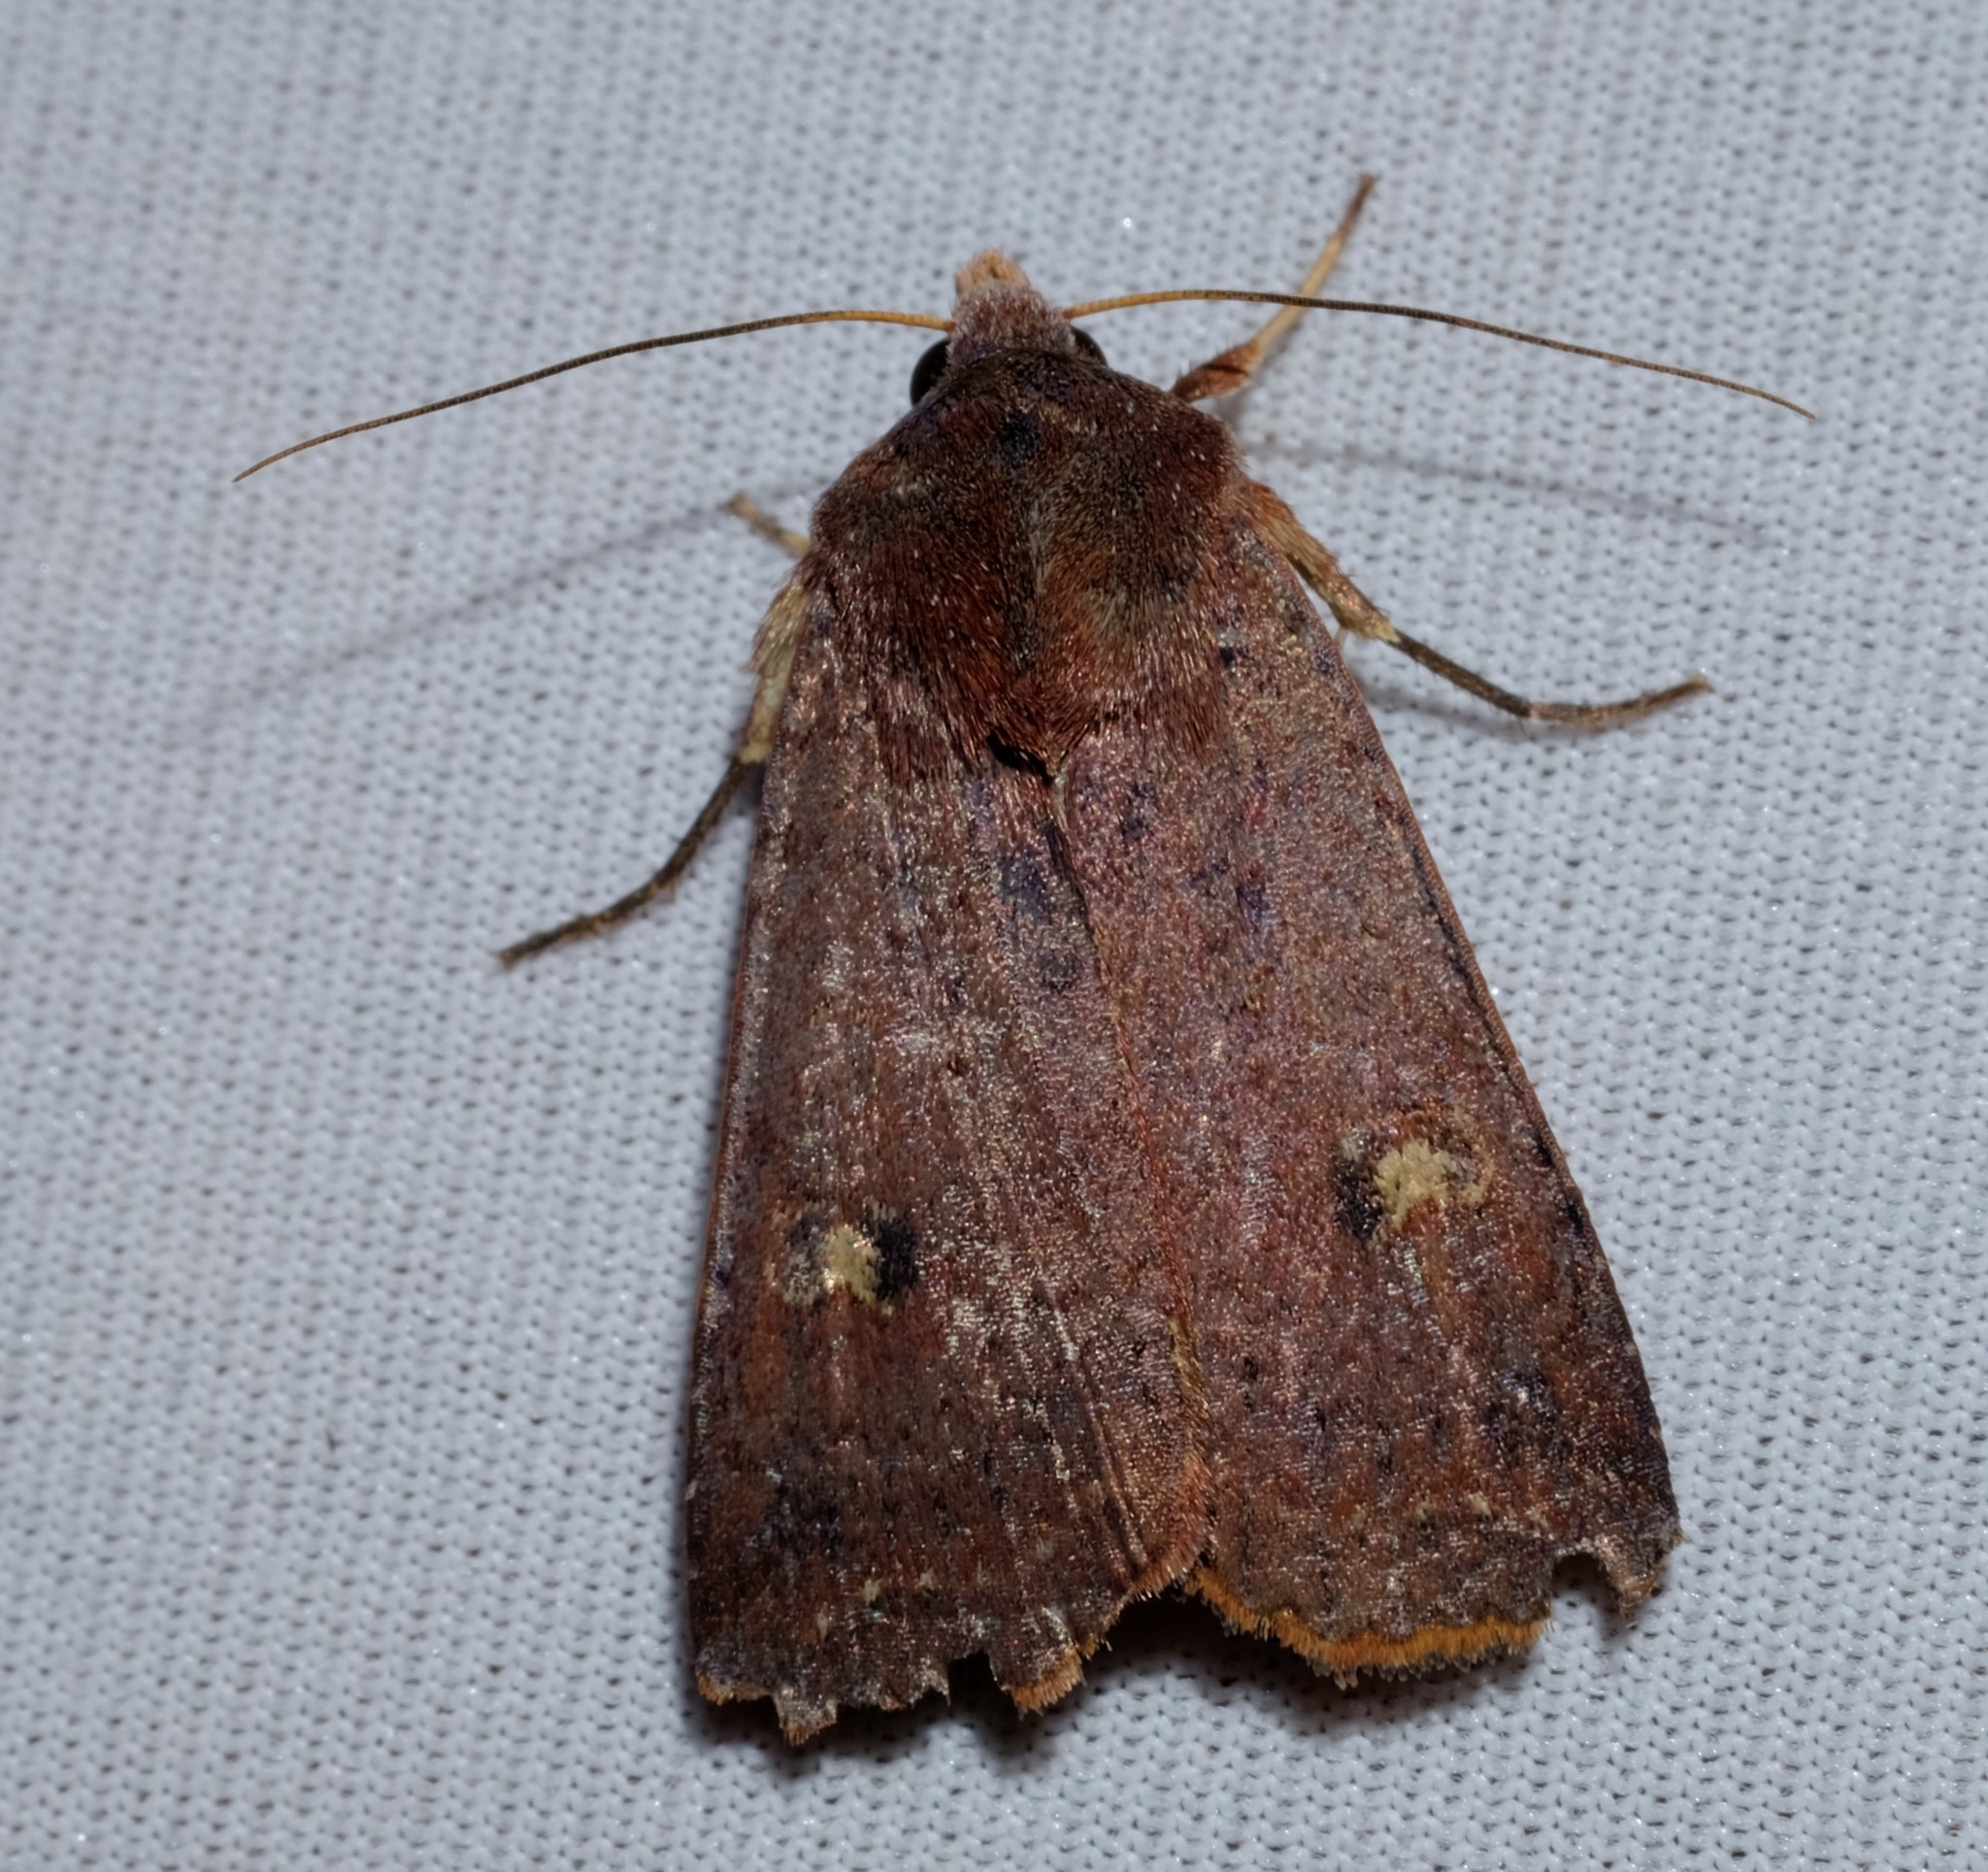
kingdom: Animalia
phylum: Arthropoda
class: Insecta
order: Lepidoptera
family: Noctuidae
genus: Diarsia
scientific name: Diarsia intermixta
